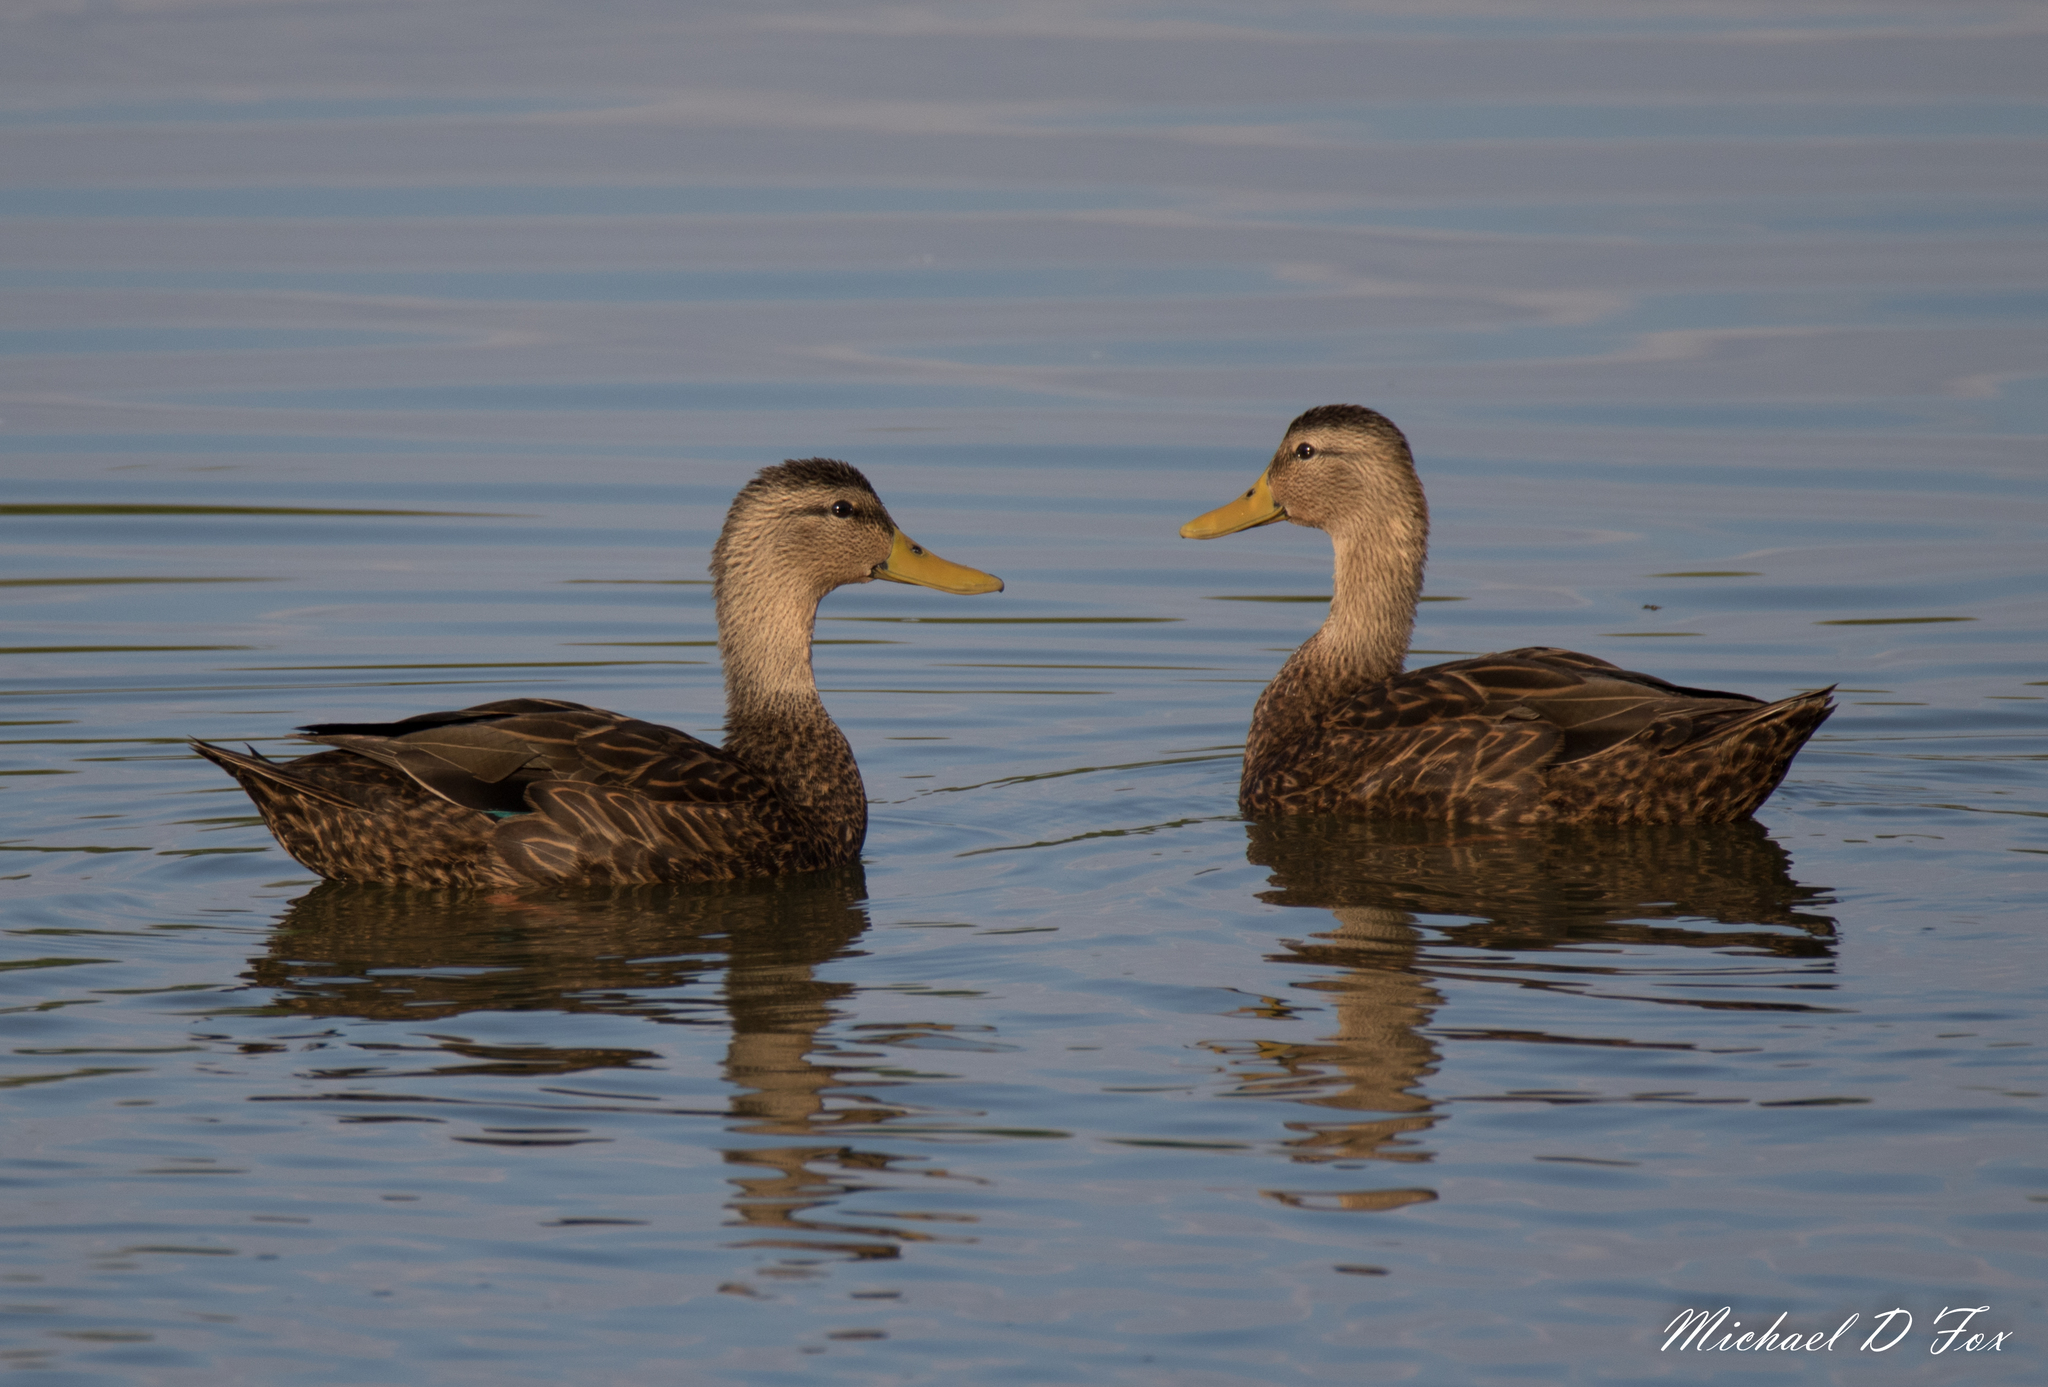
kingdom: Animalia
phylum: Chordata
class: Aves
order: Anseriformes
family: Anatidae
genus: Anas
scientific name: Anas fulvigula
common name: Mottled duck
